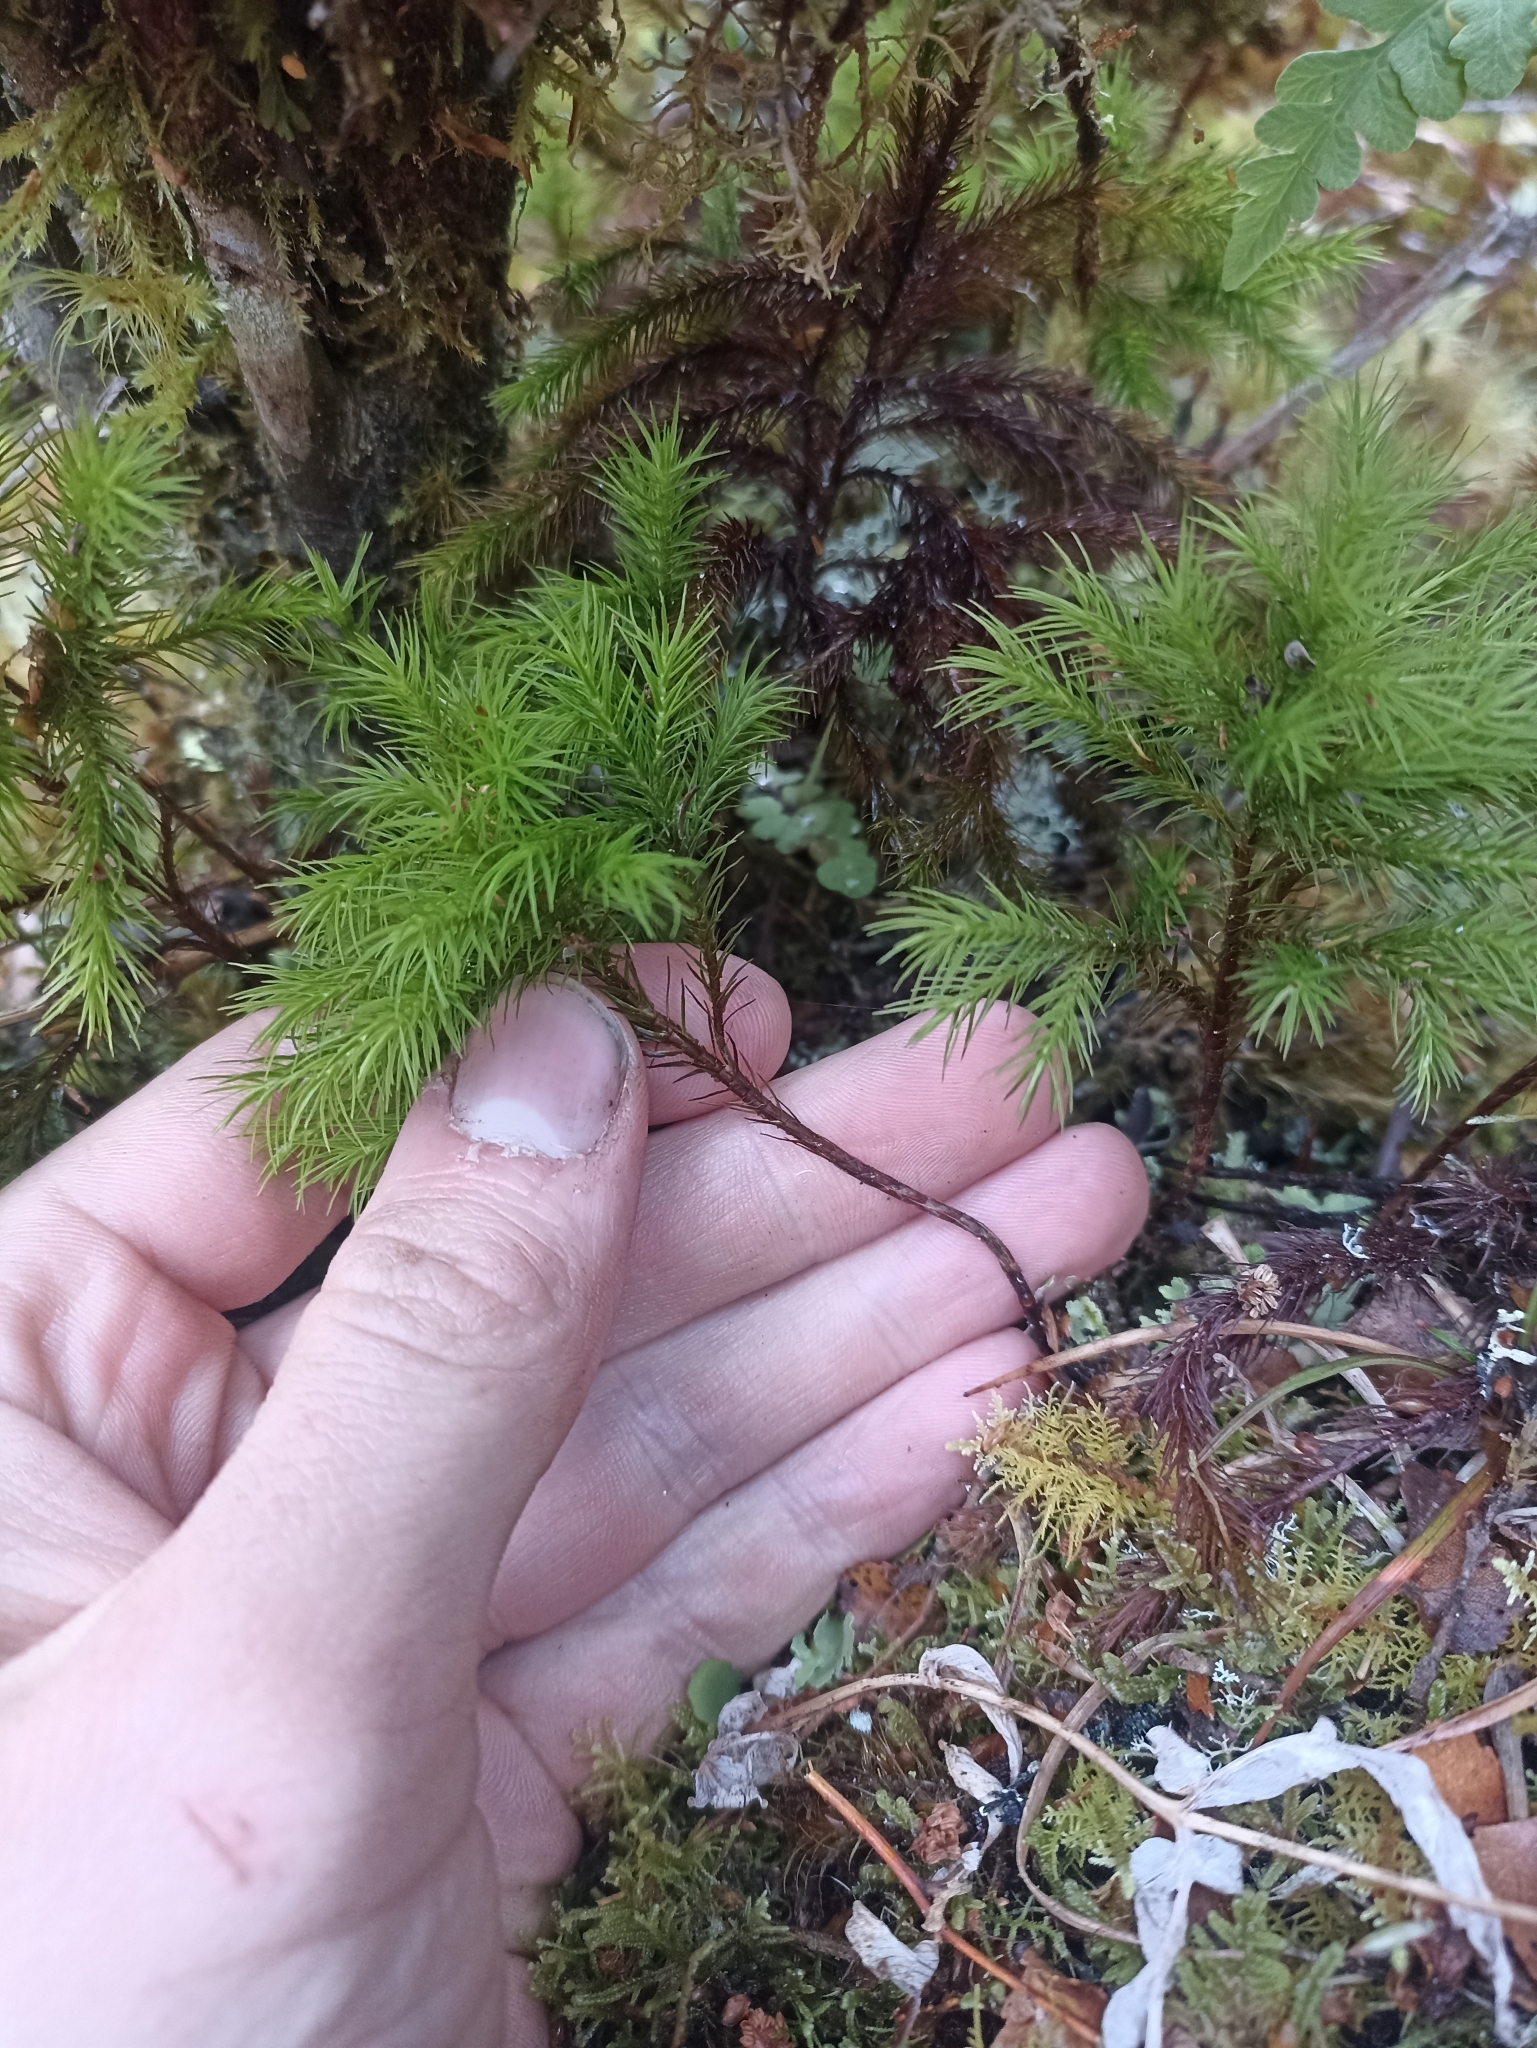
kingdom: Plantae
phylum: Bryophyta
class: Polytrichopsida
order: Polytrichales
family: Polytrichaceae
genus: Dendroligotrichum
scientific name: Dendroligotrichum tongariroense
